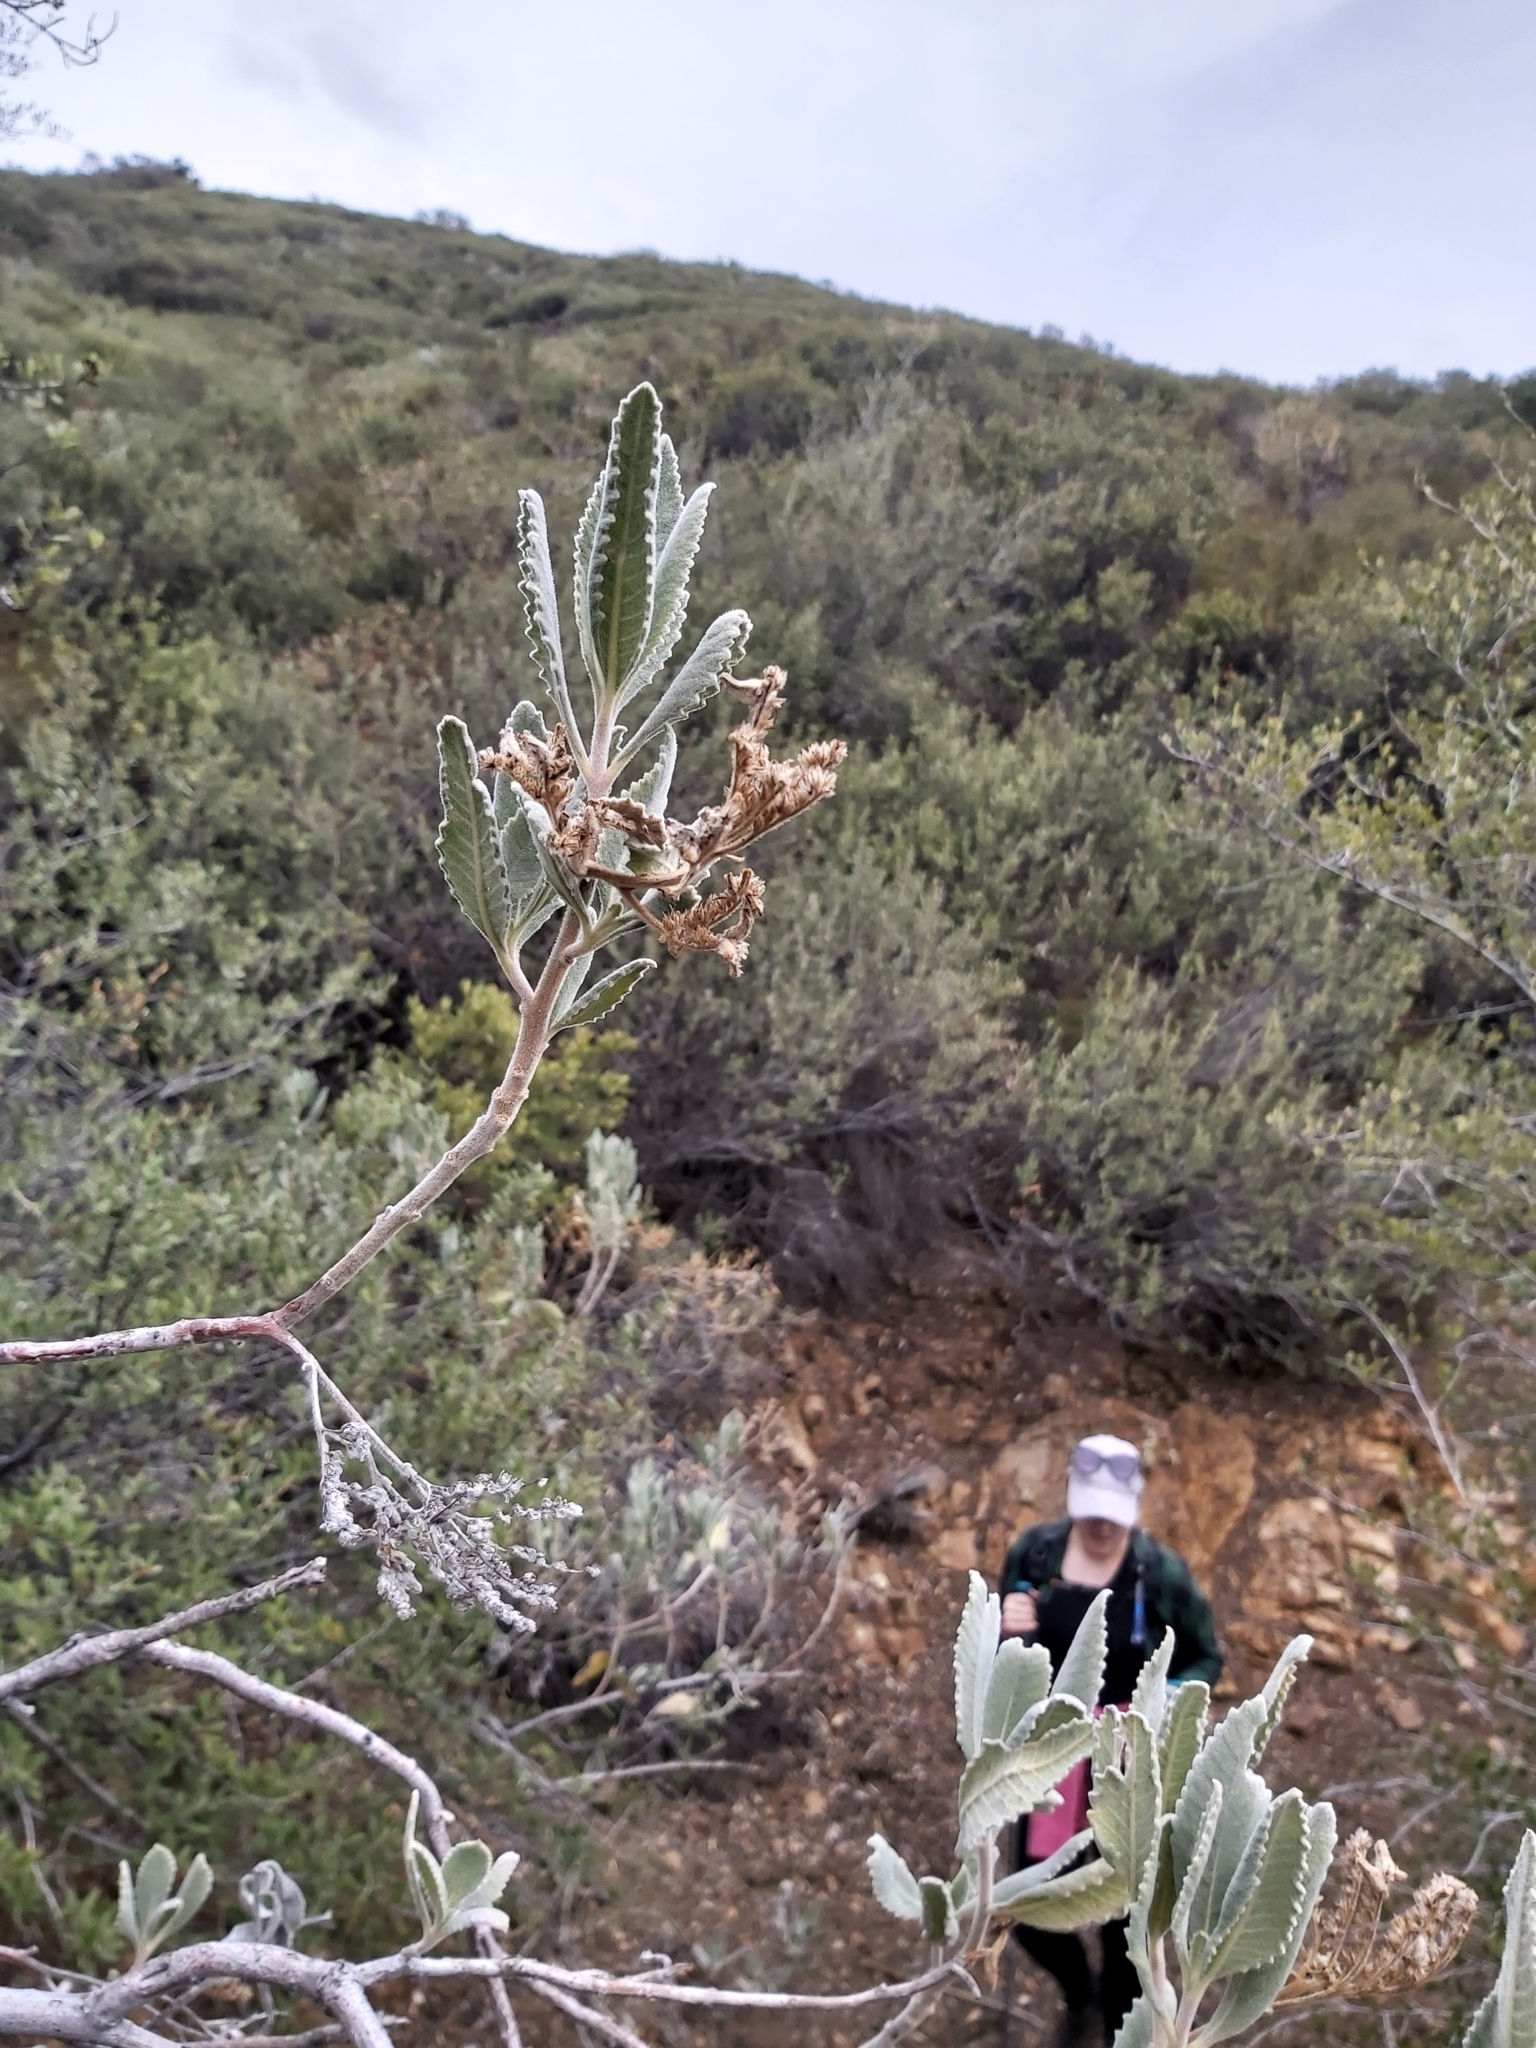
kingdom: Plantae
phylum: Tracheophyta
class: Magnoliopsida
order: Boraginales
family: Namaceae
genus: Eriodictyon
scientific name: Eriodictyon crassifolium
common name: Thick-leaf yerba-santa
